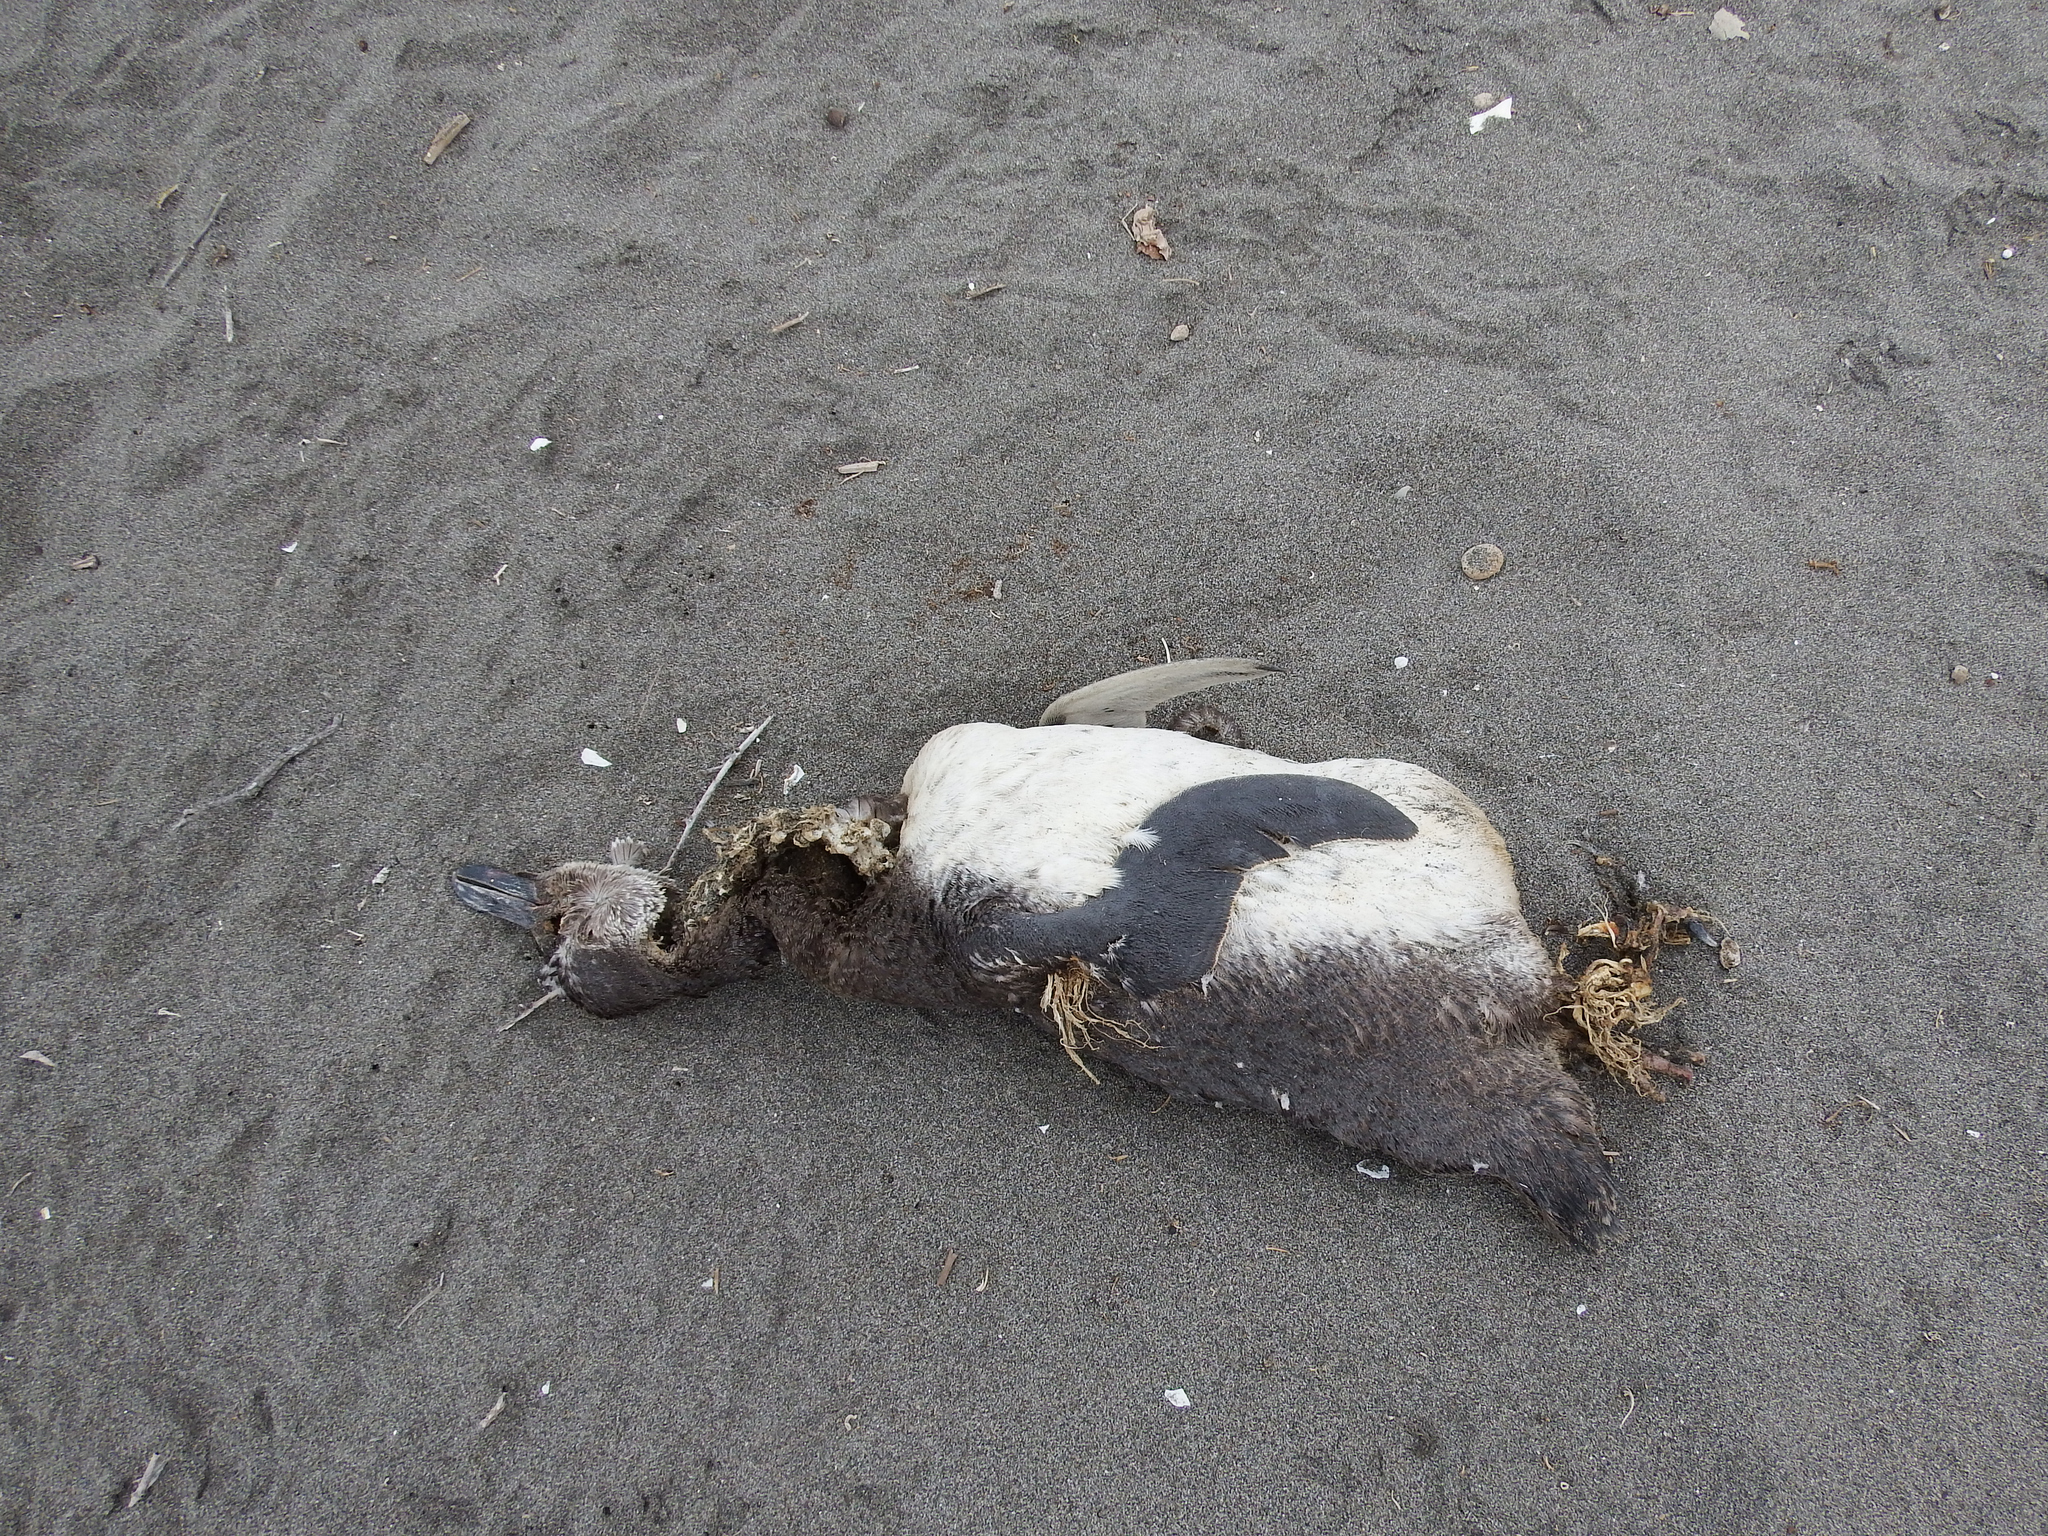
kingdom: Animalia
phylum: Chordata
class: Aves
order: Sphenisciformes
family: Spheniscidae
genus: Spheniscus
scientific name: Spheniscus humboldti
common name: Humboldt penguin
